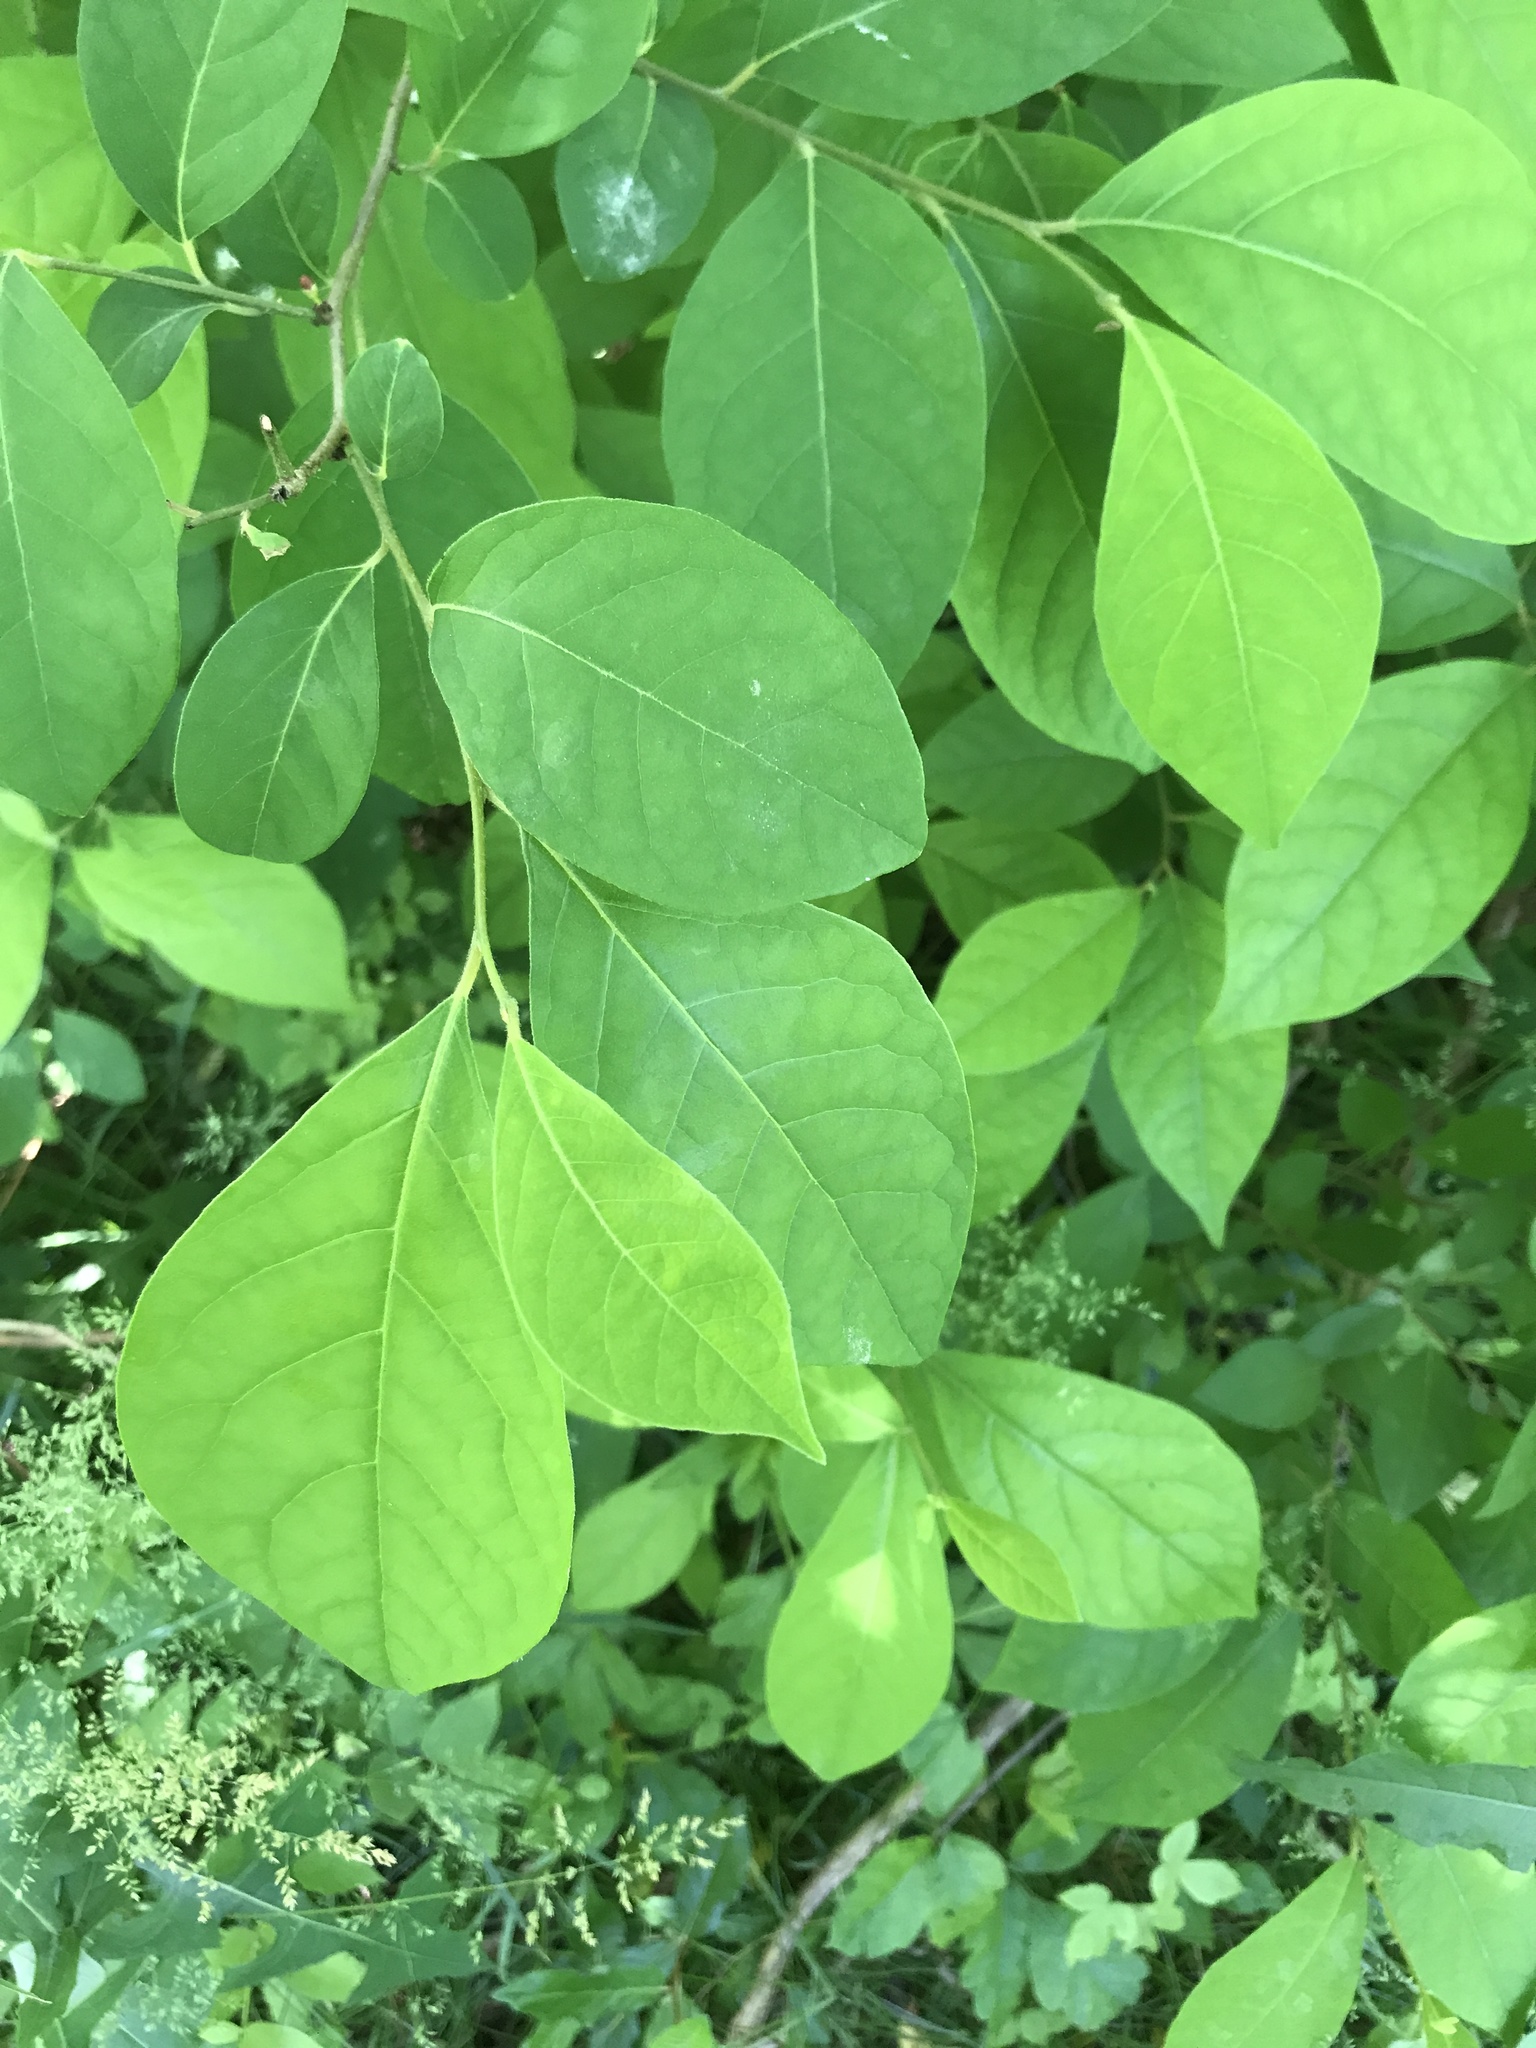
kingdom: Plantae
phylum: Tracheophyta
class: Magnoliopsida
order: Laurales
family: Lauraceae
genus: Lindera
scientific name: Lindera benzoin
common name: Spicebush
